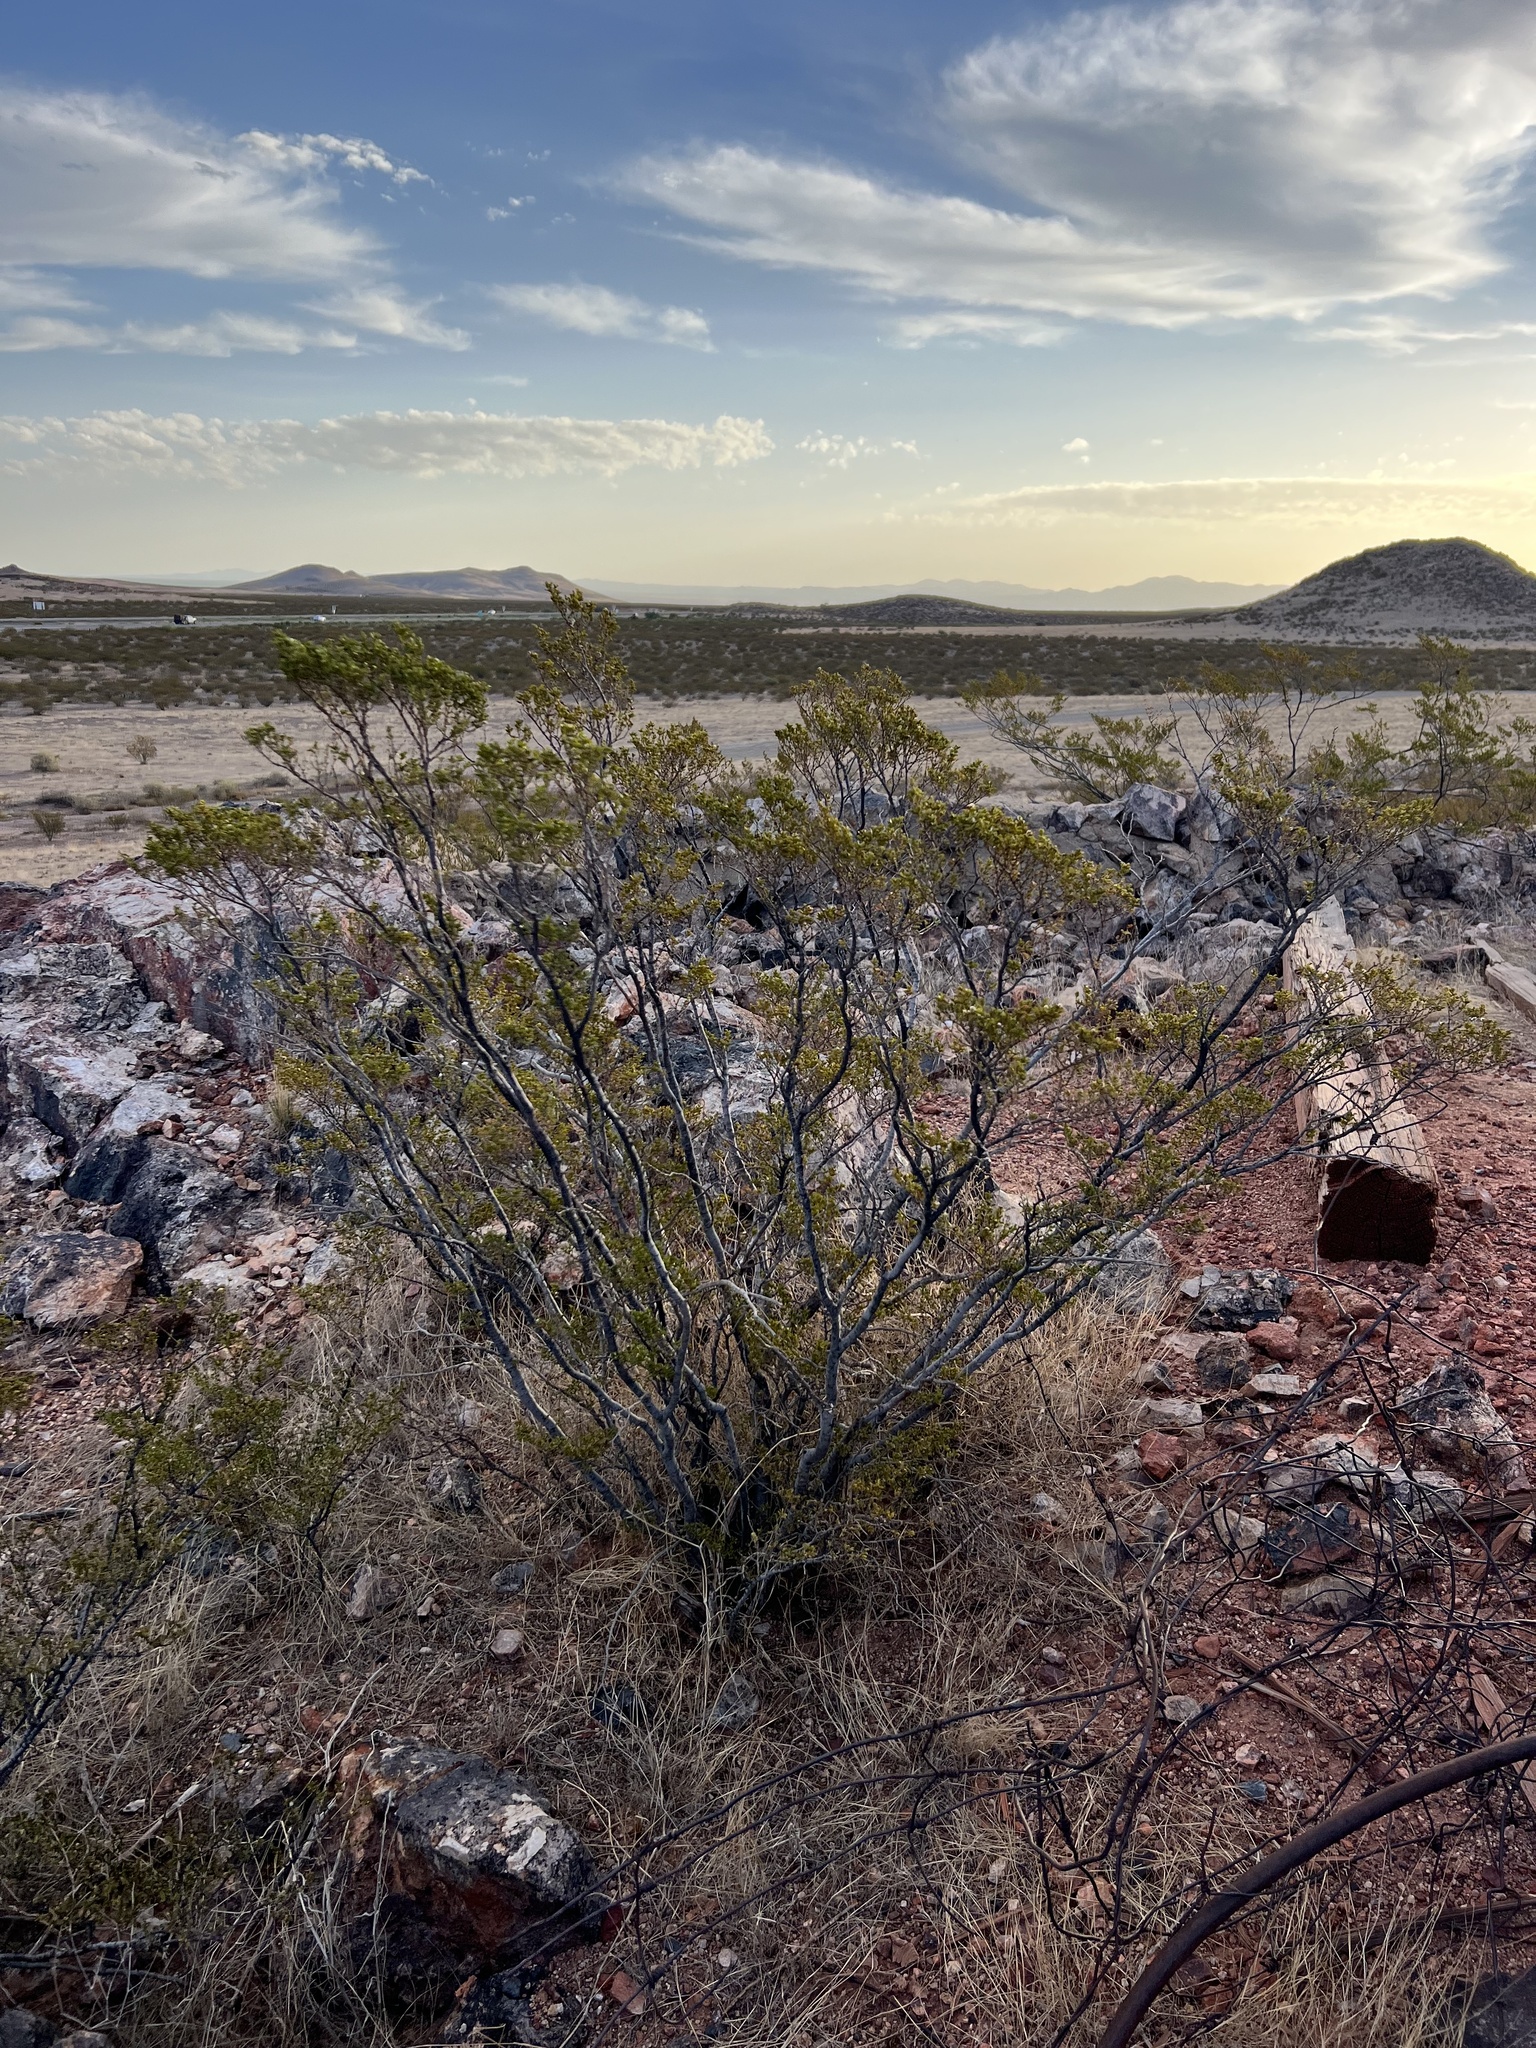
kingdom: Plantae
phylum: Tracheophyta
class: Magnoliopsida
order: Zygophyllales
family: Zygophyllaceae
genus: Larrea
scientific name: Larrea tridentata
